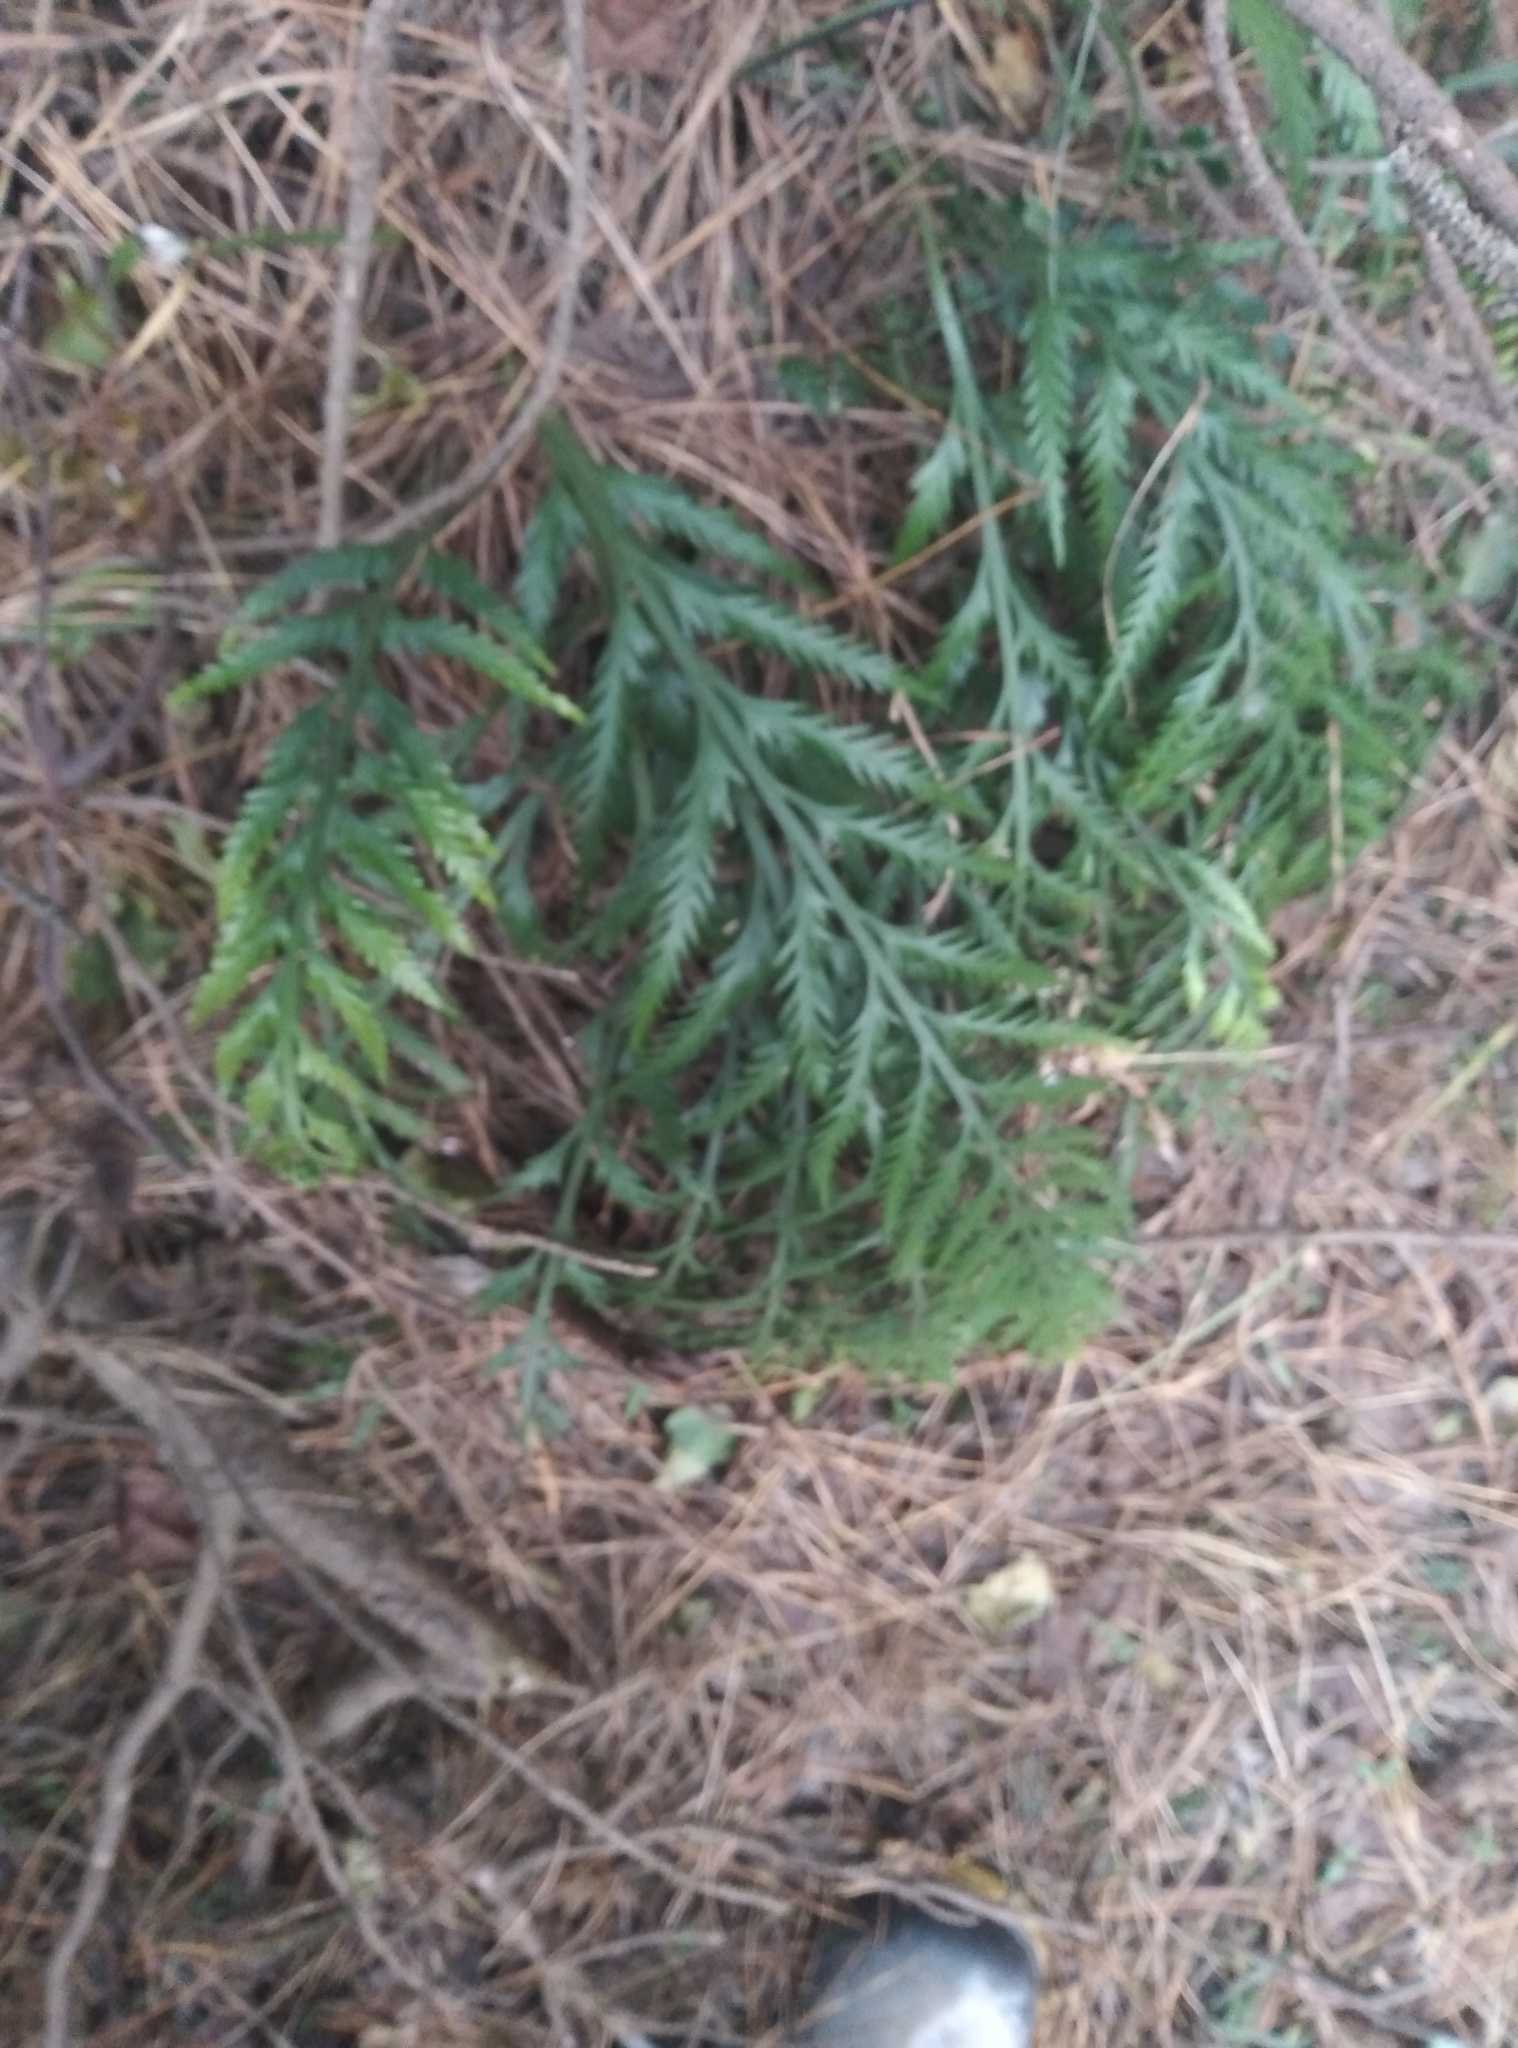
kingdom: Plantae
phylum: Tracheophyta
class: Polypodiopsida
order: Polypodiales
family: Aspleniaceae
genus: Asplenium
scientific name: Asplenium flaccidum
